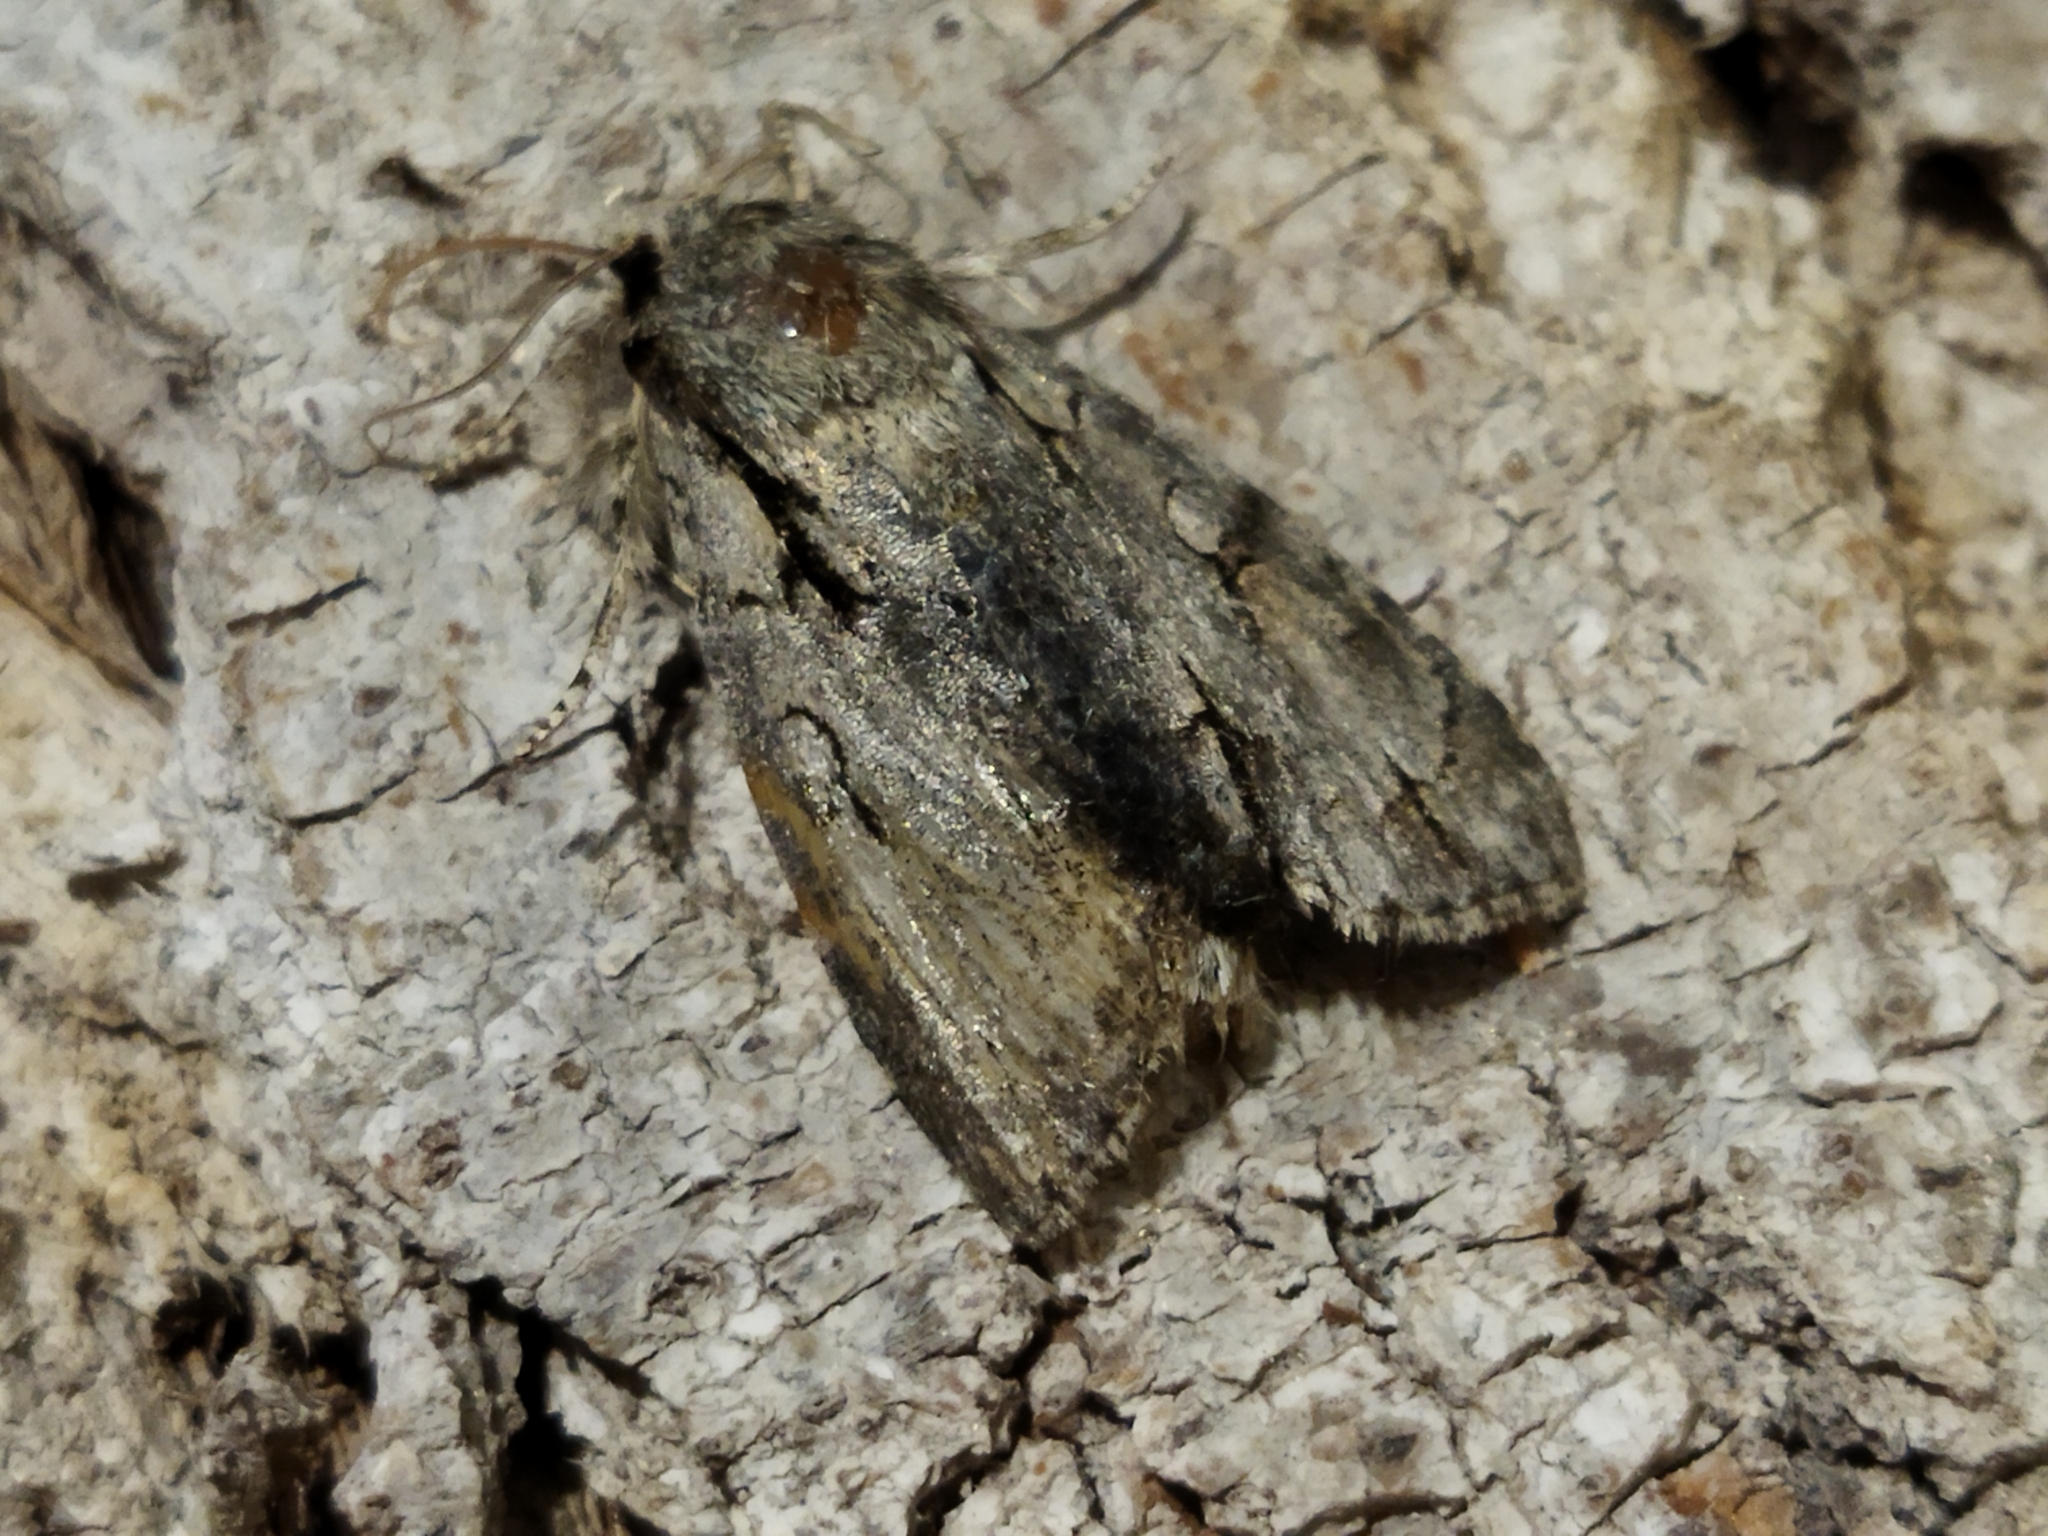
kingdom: Animalia
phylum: Arthropoda
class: Insecta
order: Lepidoptera
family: Noctuidae
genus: Acronicta
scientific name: Acronicta
